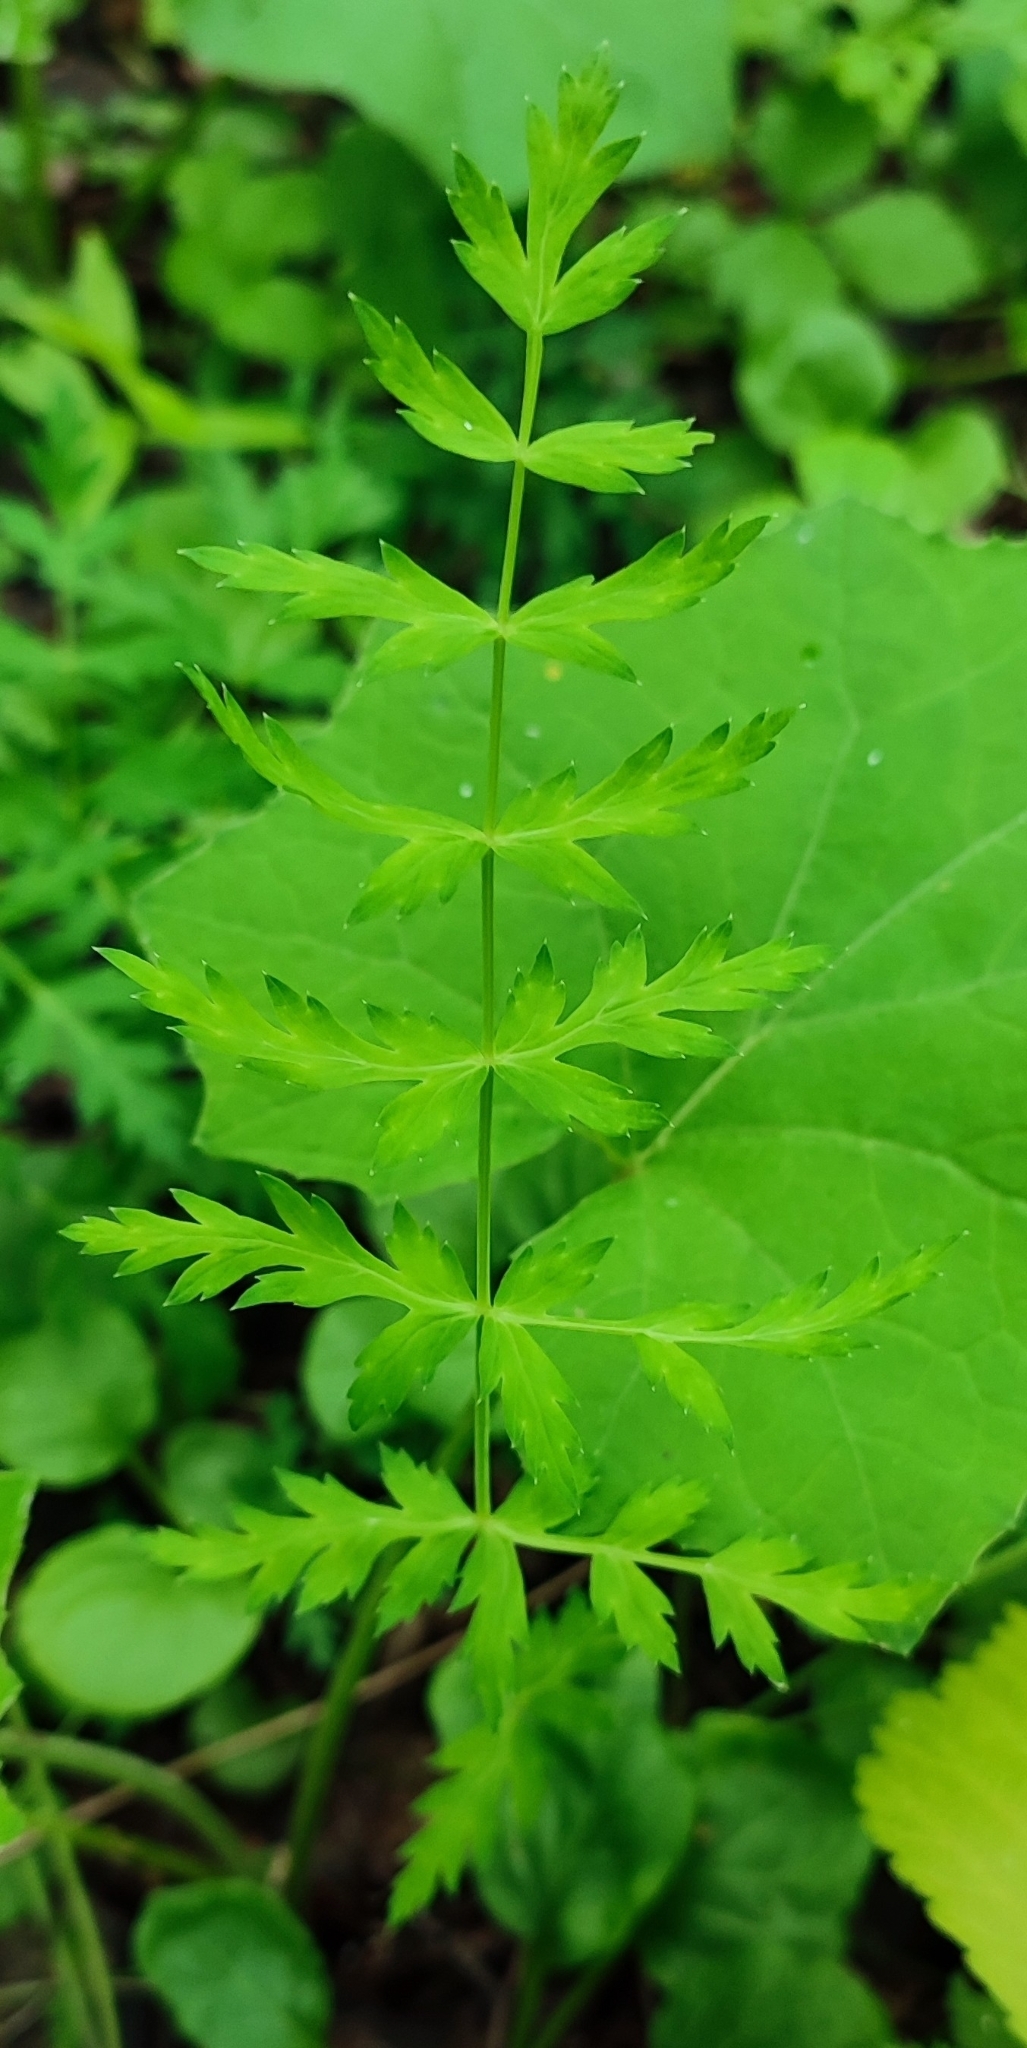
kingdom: Plantae
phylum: Tracheophyta
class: Magnoliopsida
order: Apiales
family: Apiaceae
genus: Seseli
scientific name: Seseli libanotis
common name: Mooncarrot
